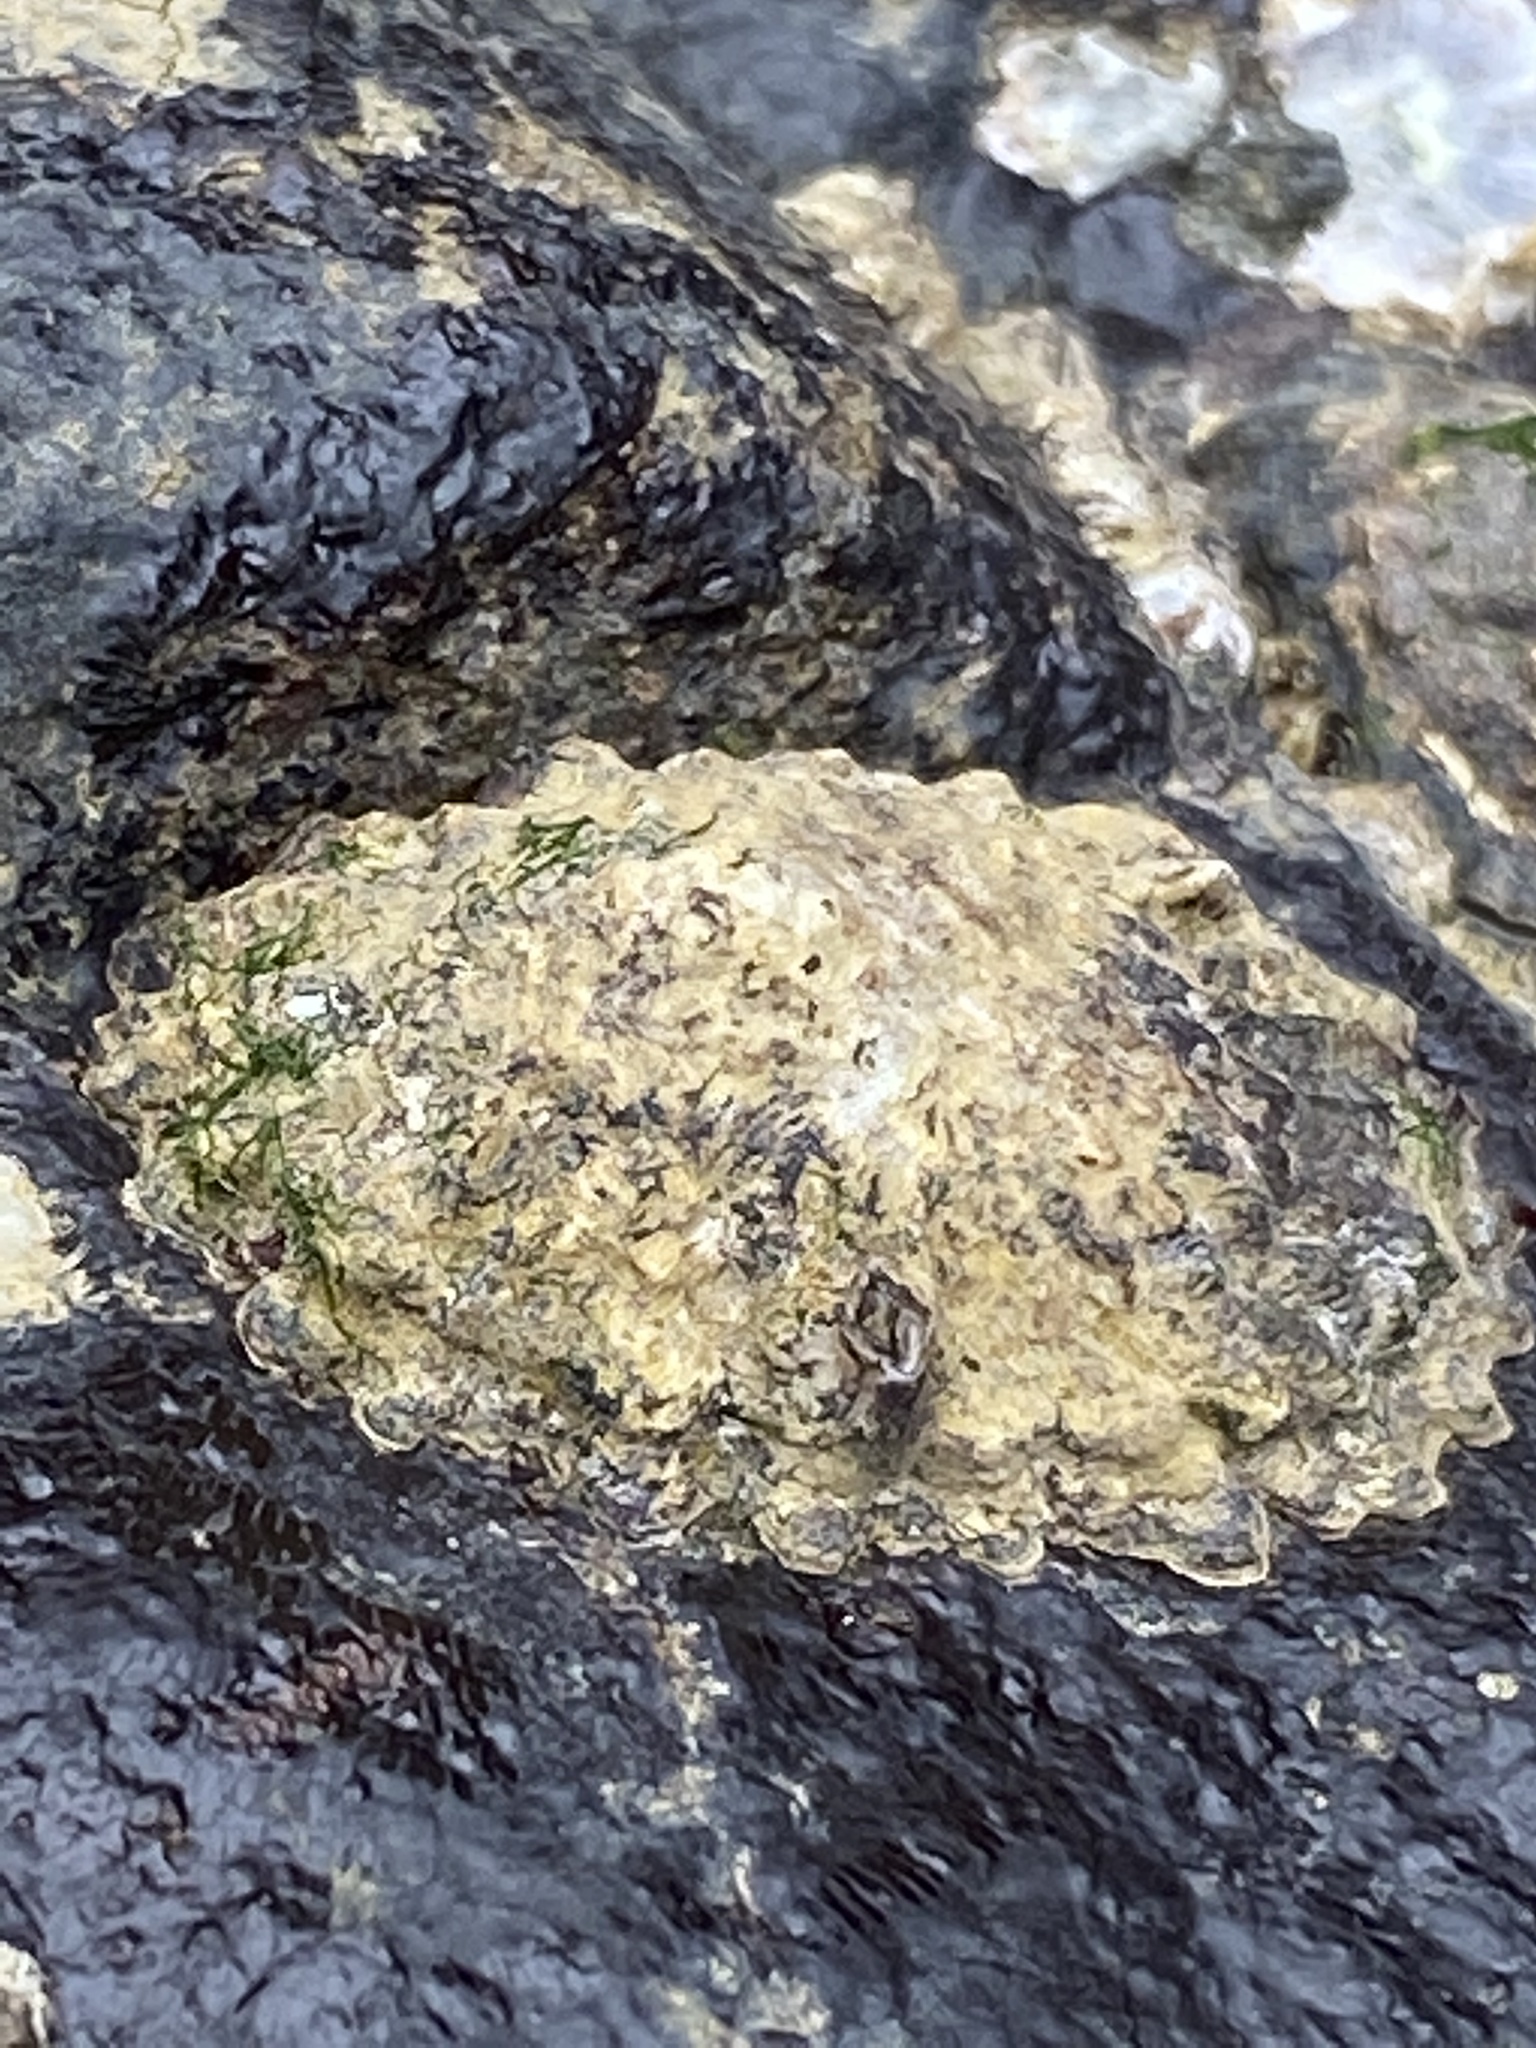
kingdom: Animalia
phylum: Mollusca
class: Gastropoda
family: Lottiidae
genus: Lottia
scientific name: Lottia scabra
